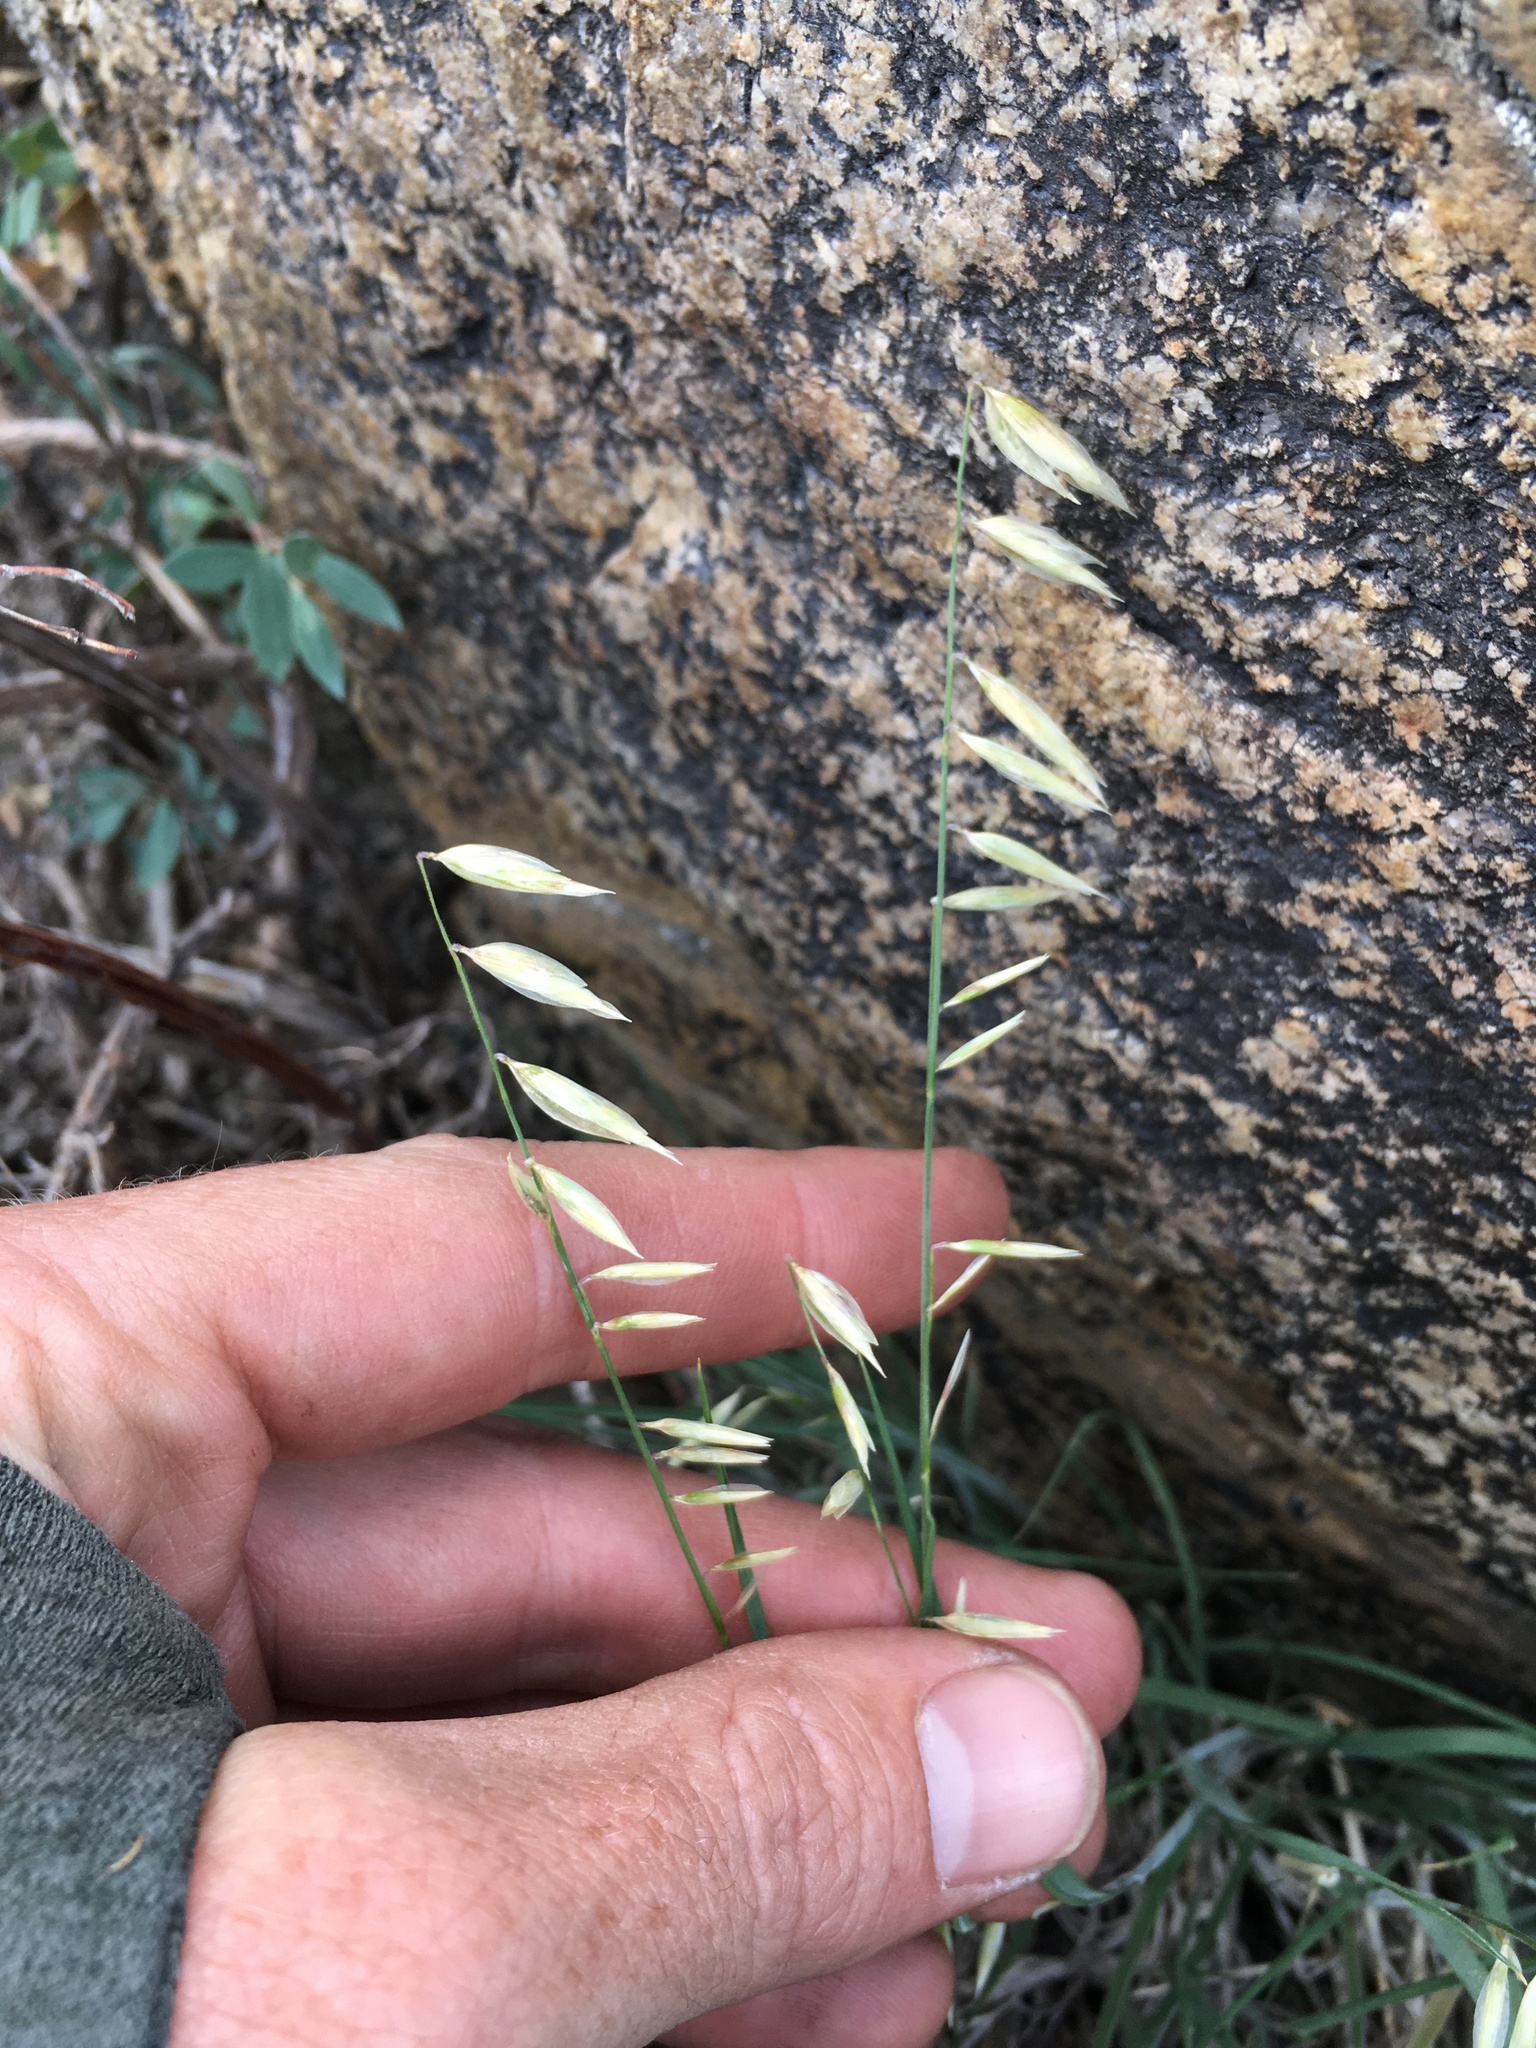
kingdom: Plantae
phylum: Tracheophyta
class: Liliopsida
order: Poales
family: Poaceae
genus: Melica
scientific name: Melica stricta
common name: Rock melic
